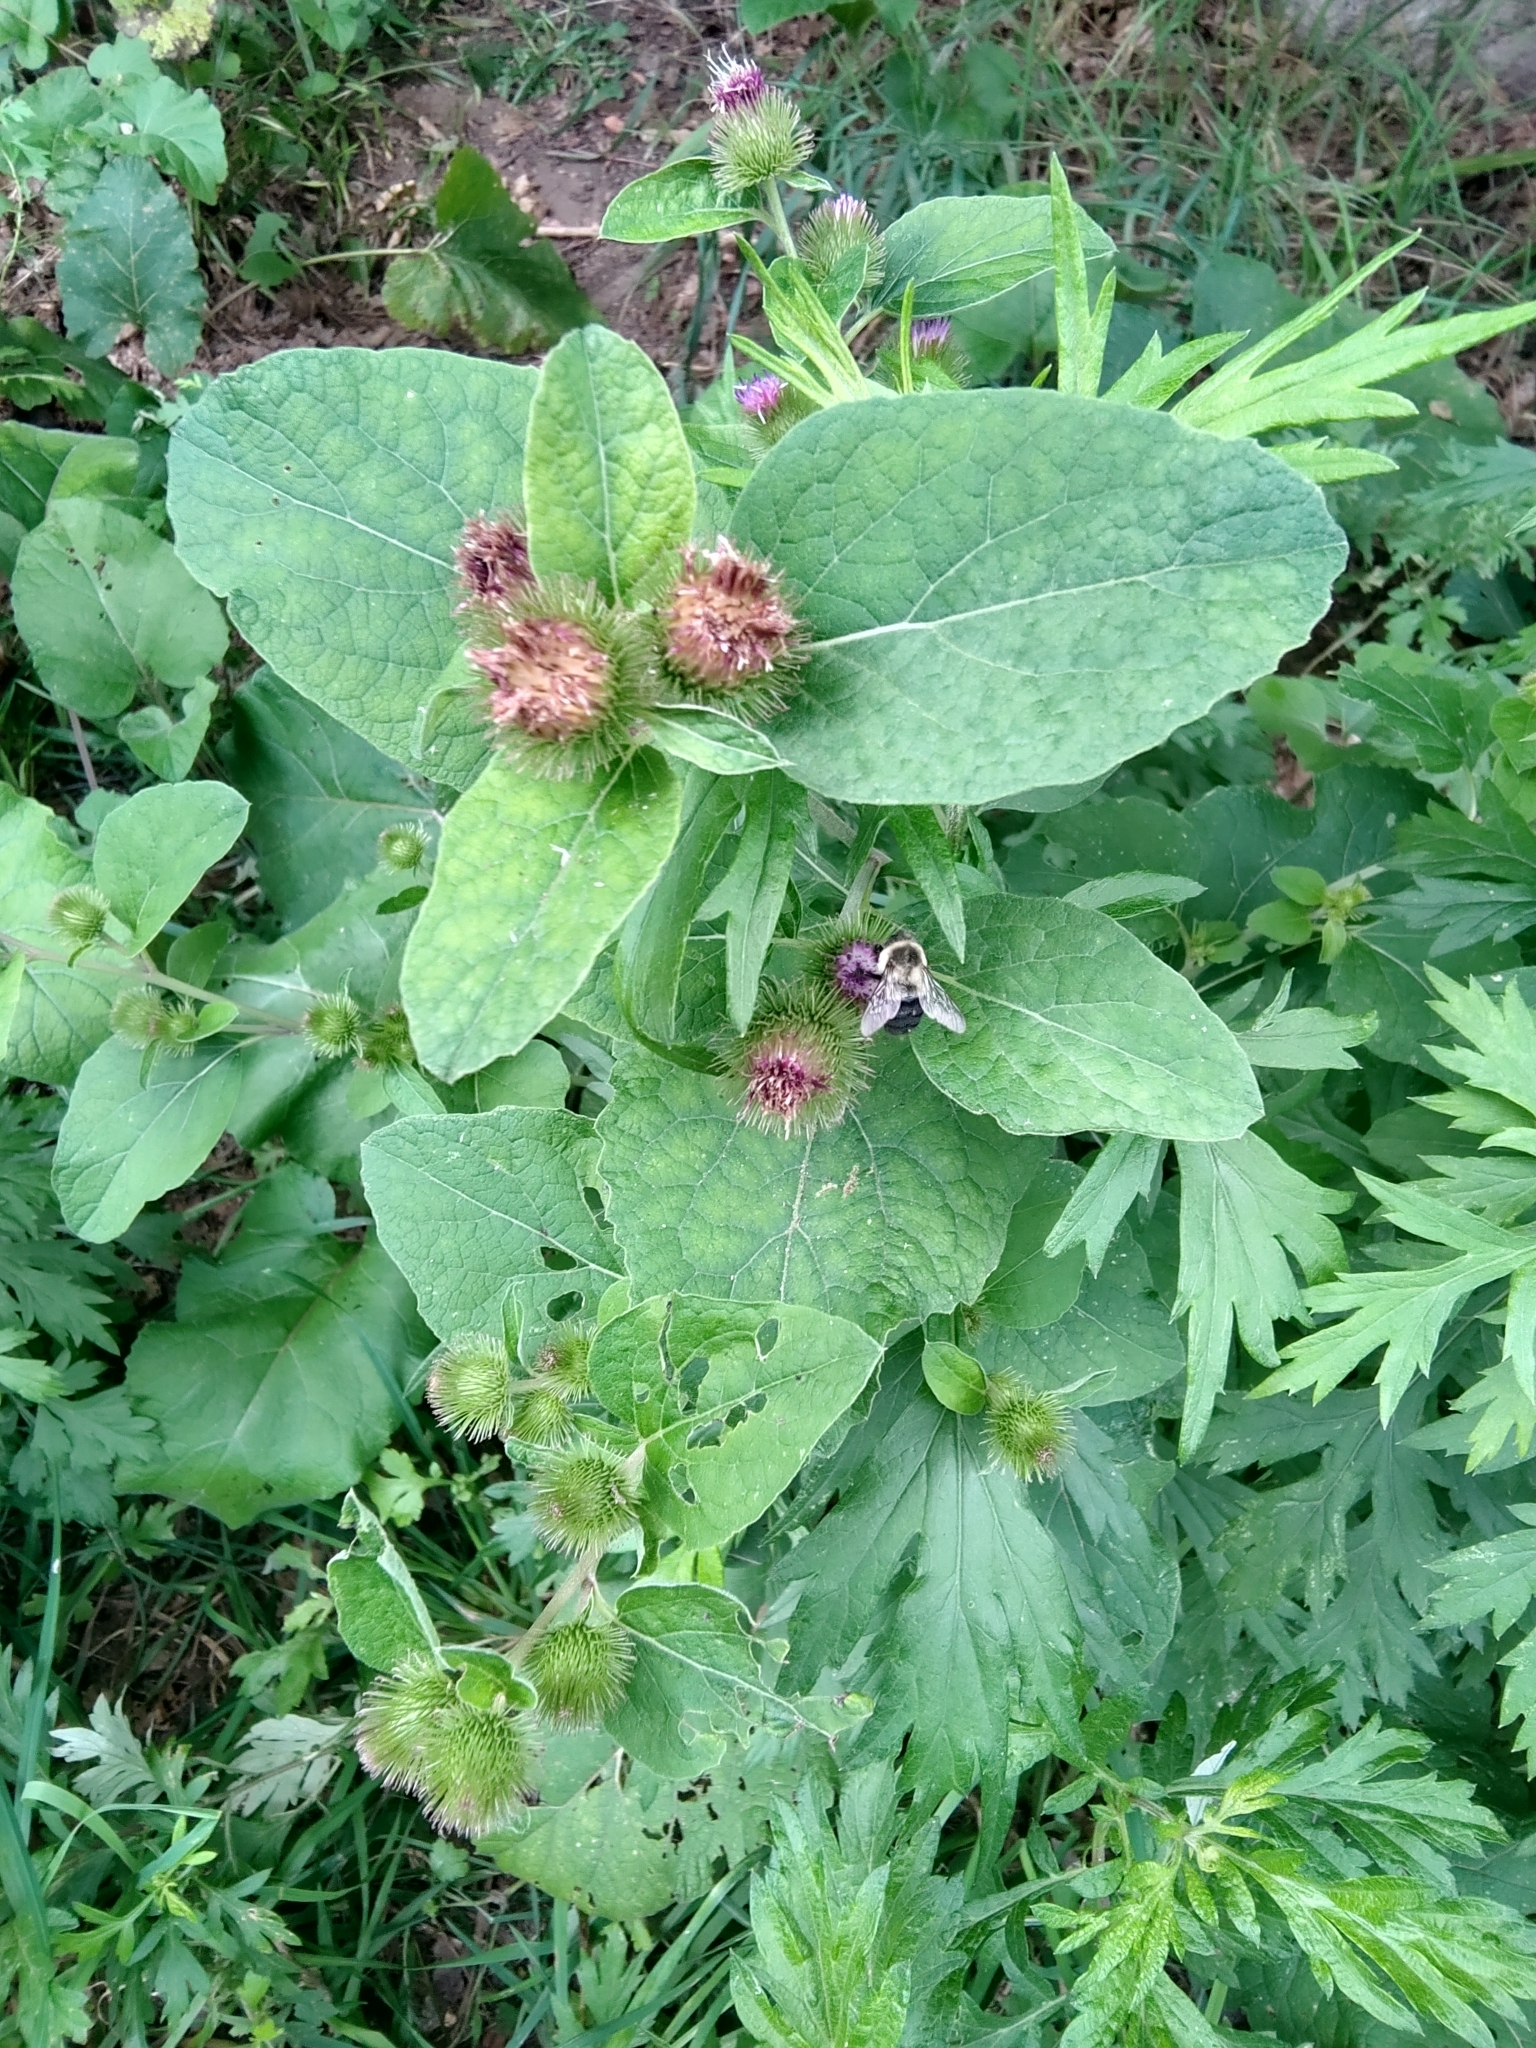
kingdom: Plantae
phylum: Tracheophyta
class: Magnoliopsida
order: Asterales
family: Asteraceae
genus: Arctium
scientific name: Arctium minus
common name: Lesser burdock
